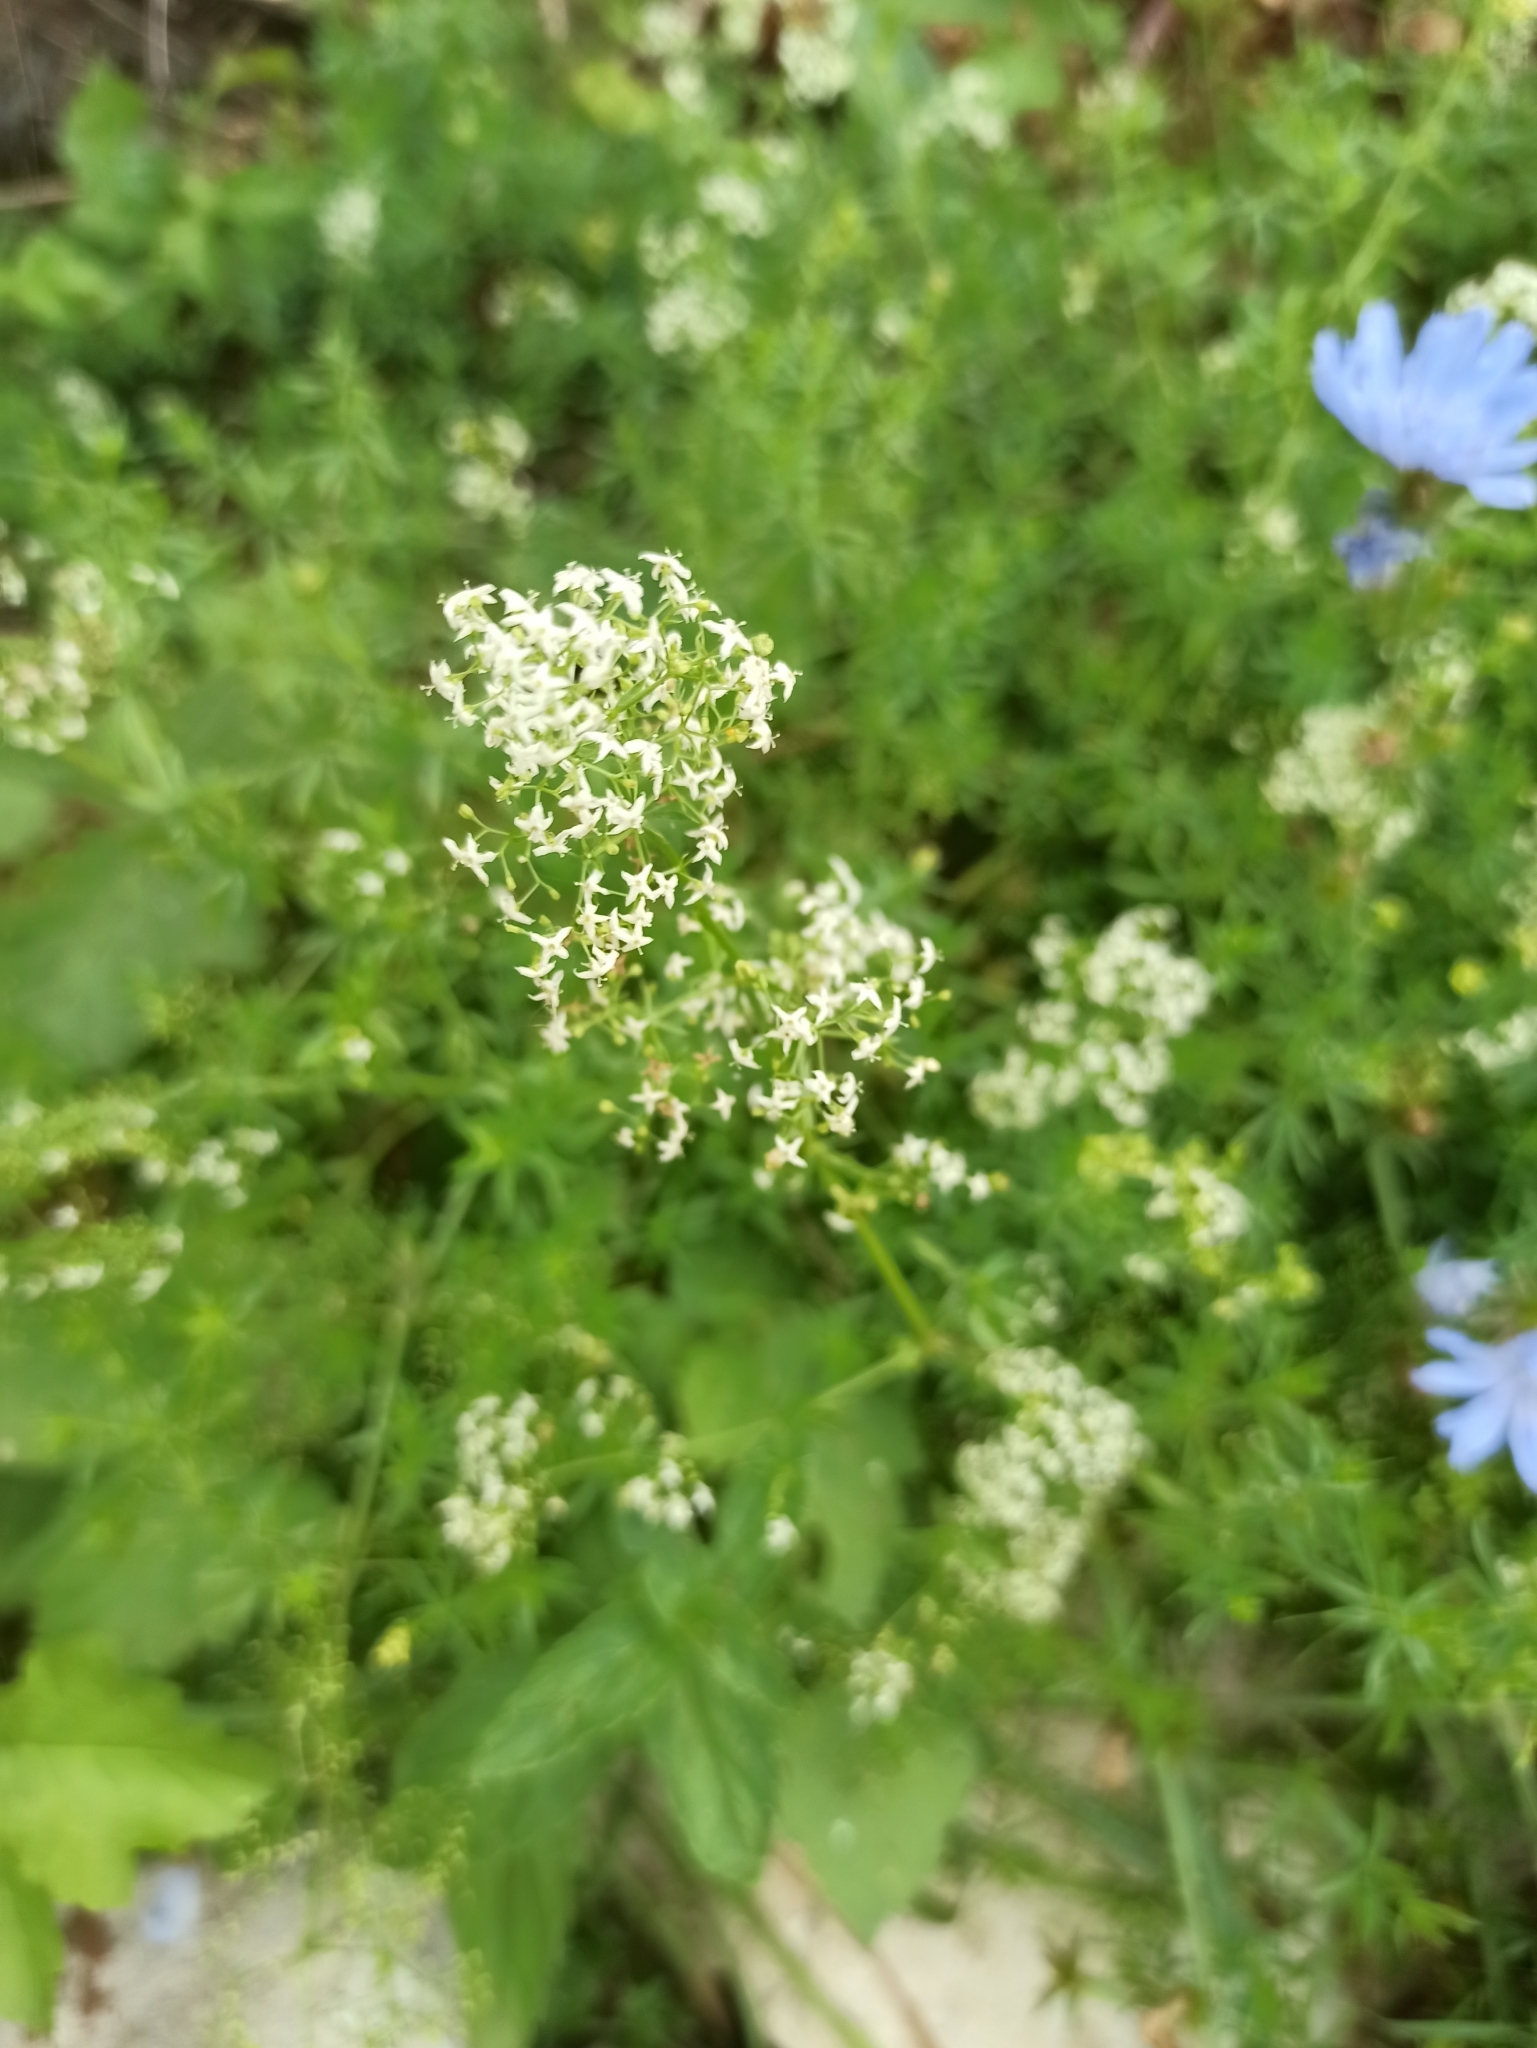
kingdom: Plantae
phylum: Tracheophyta
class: Magnoliopsida
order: Gentianales
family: Rubiaceae
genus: Galium
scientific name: Galium mollugo
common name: Hedge bedstraw
